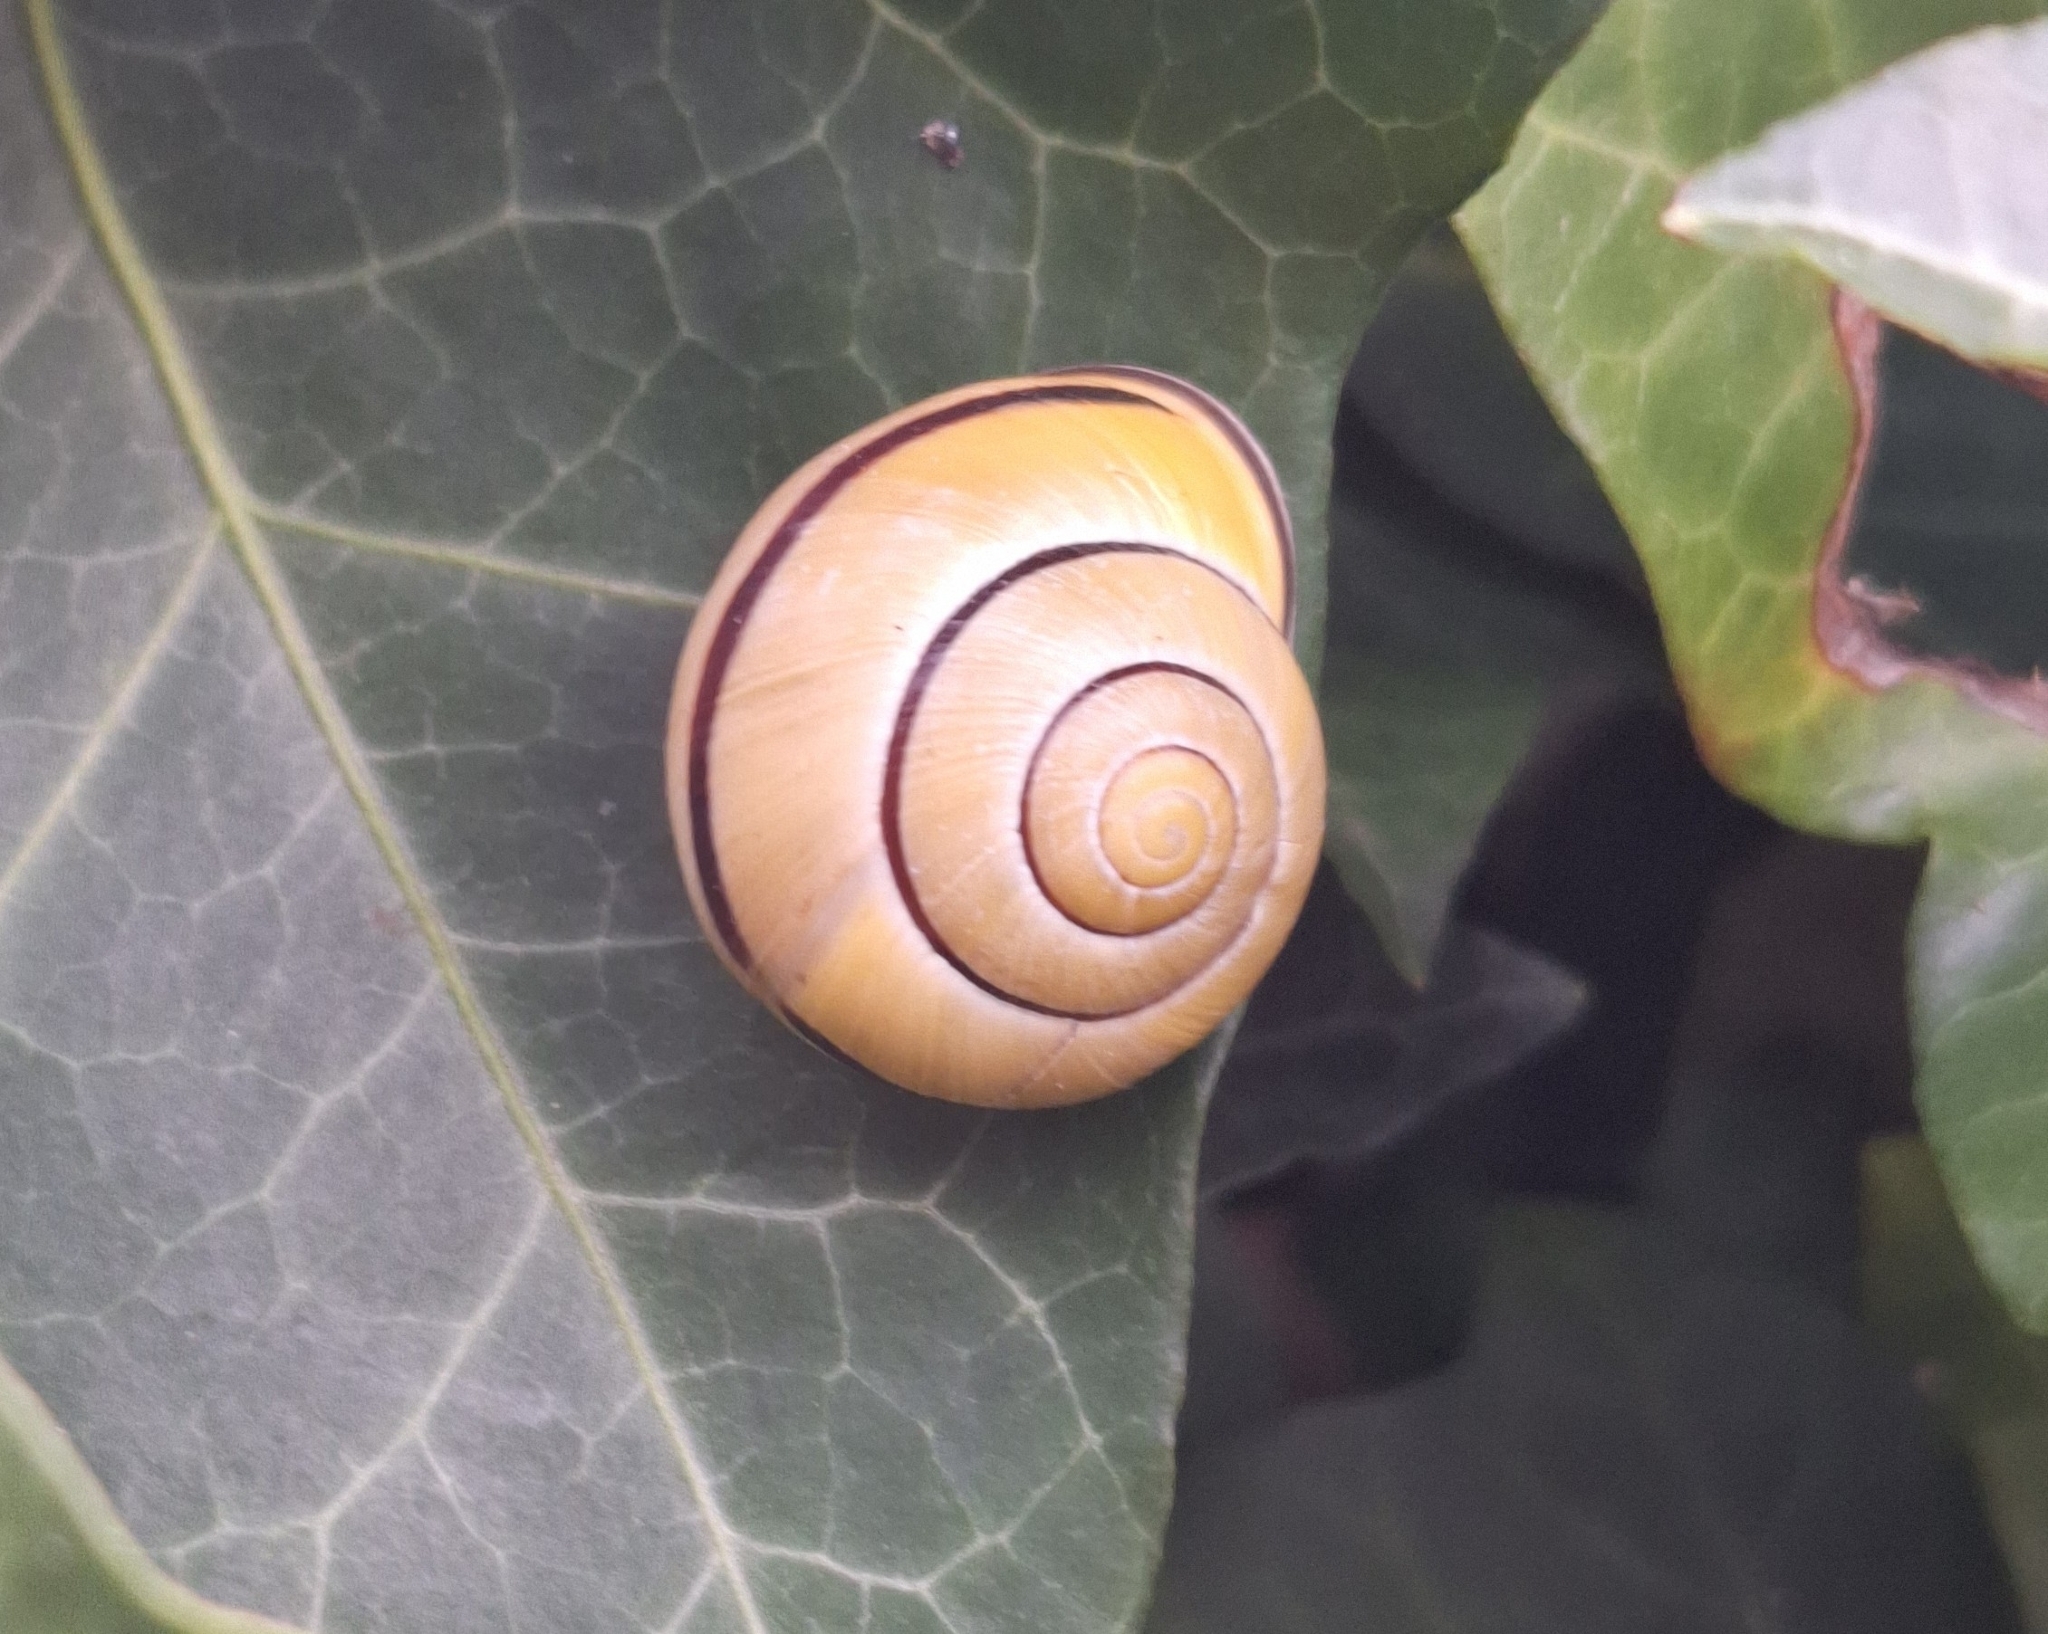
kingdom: Animalia
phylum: Mollusca
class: Gastropoda
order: Stylommatophora
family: Helicidae
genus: Cepaea
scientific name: Cepaea nemoralis
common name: Grovesnail
